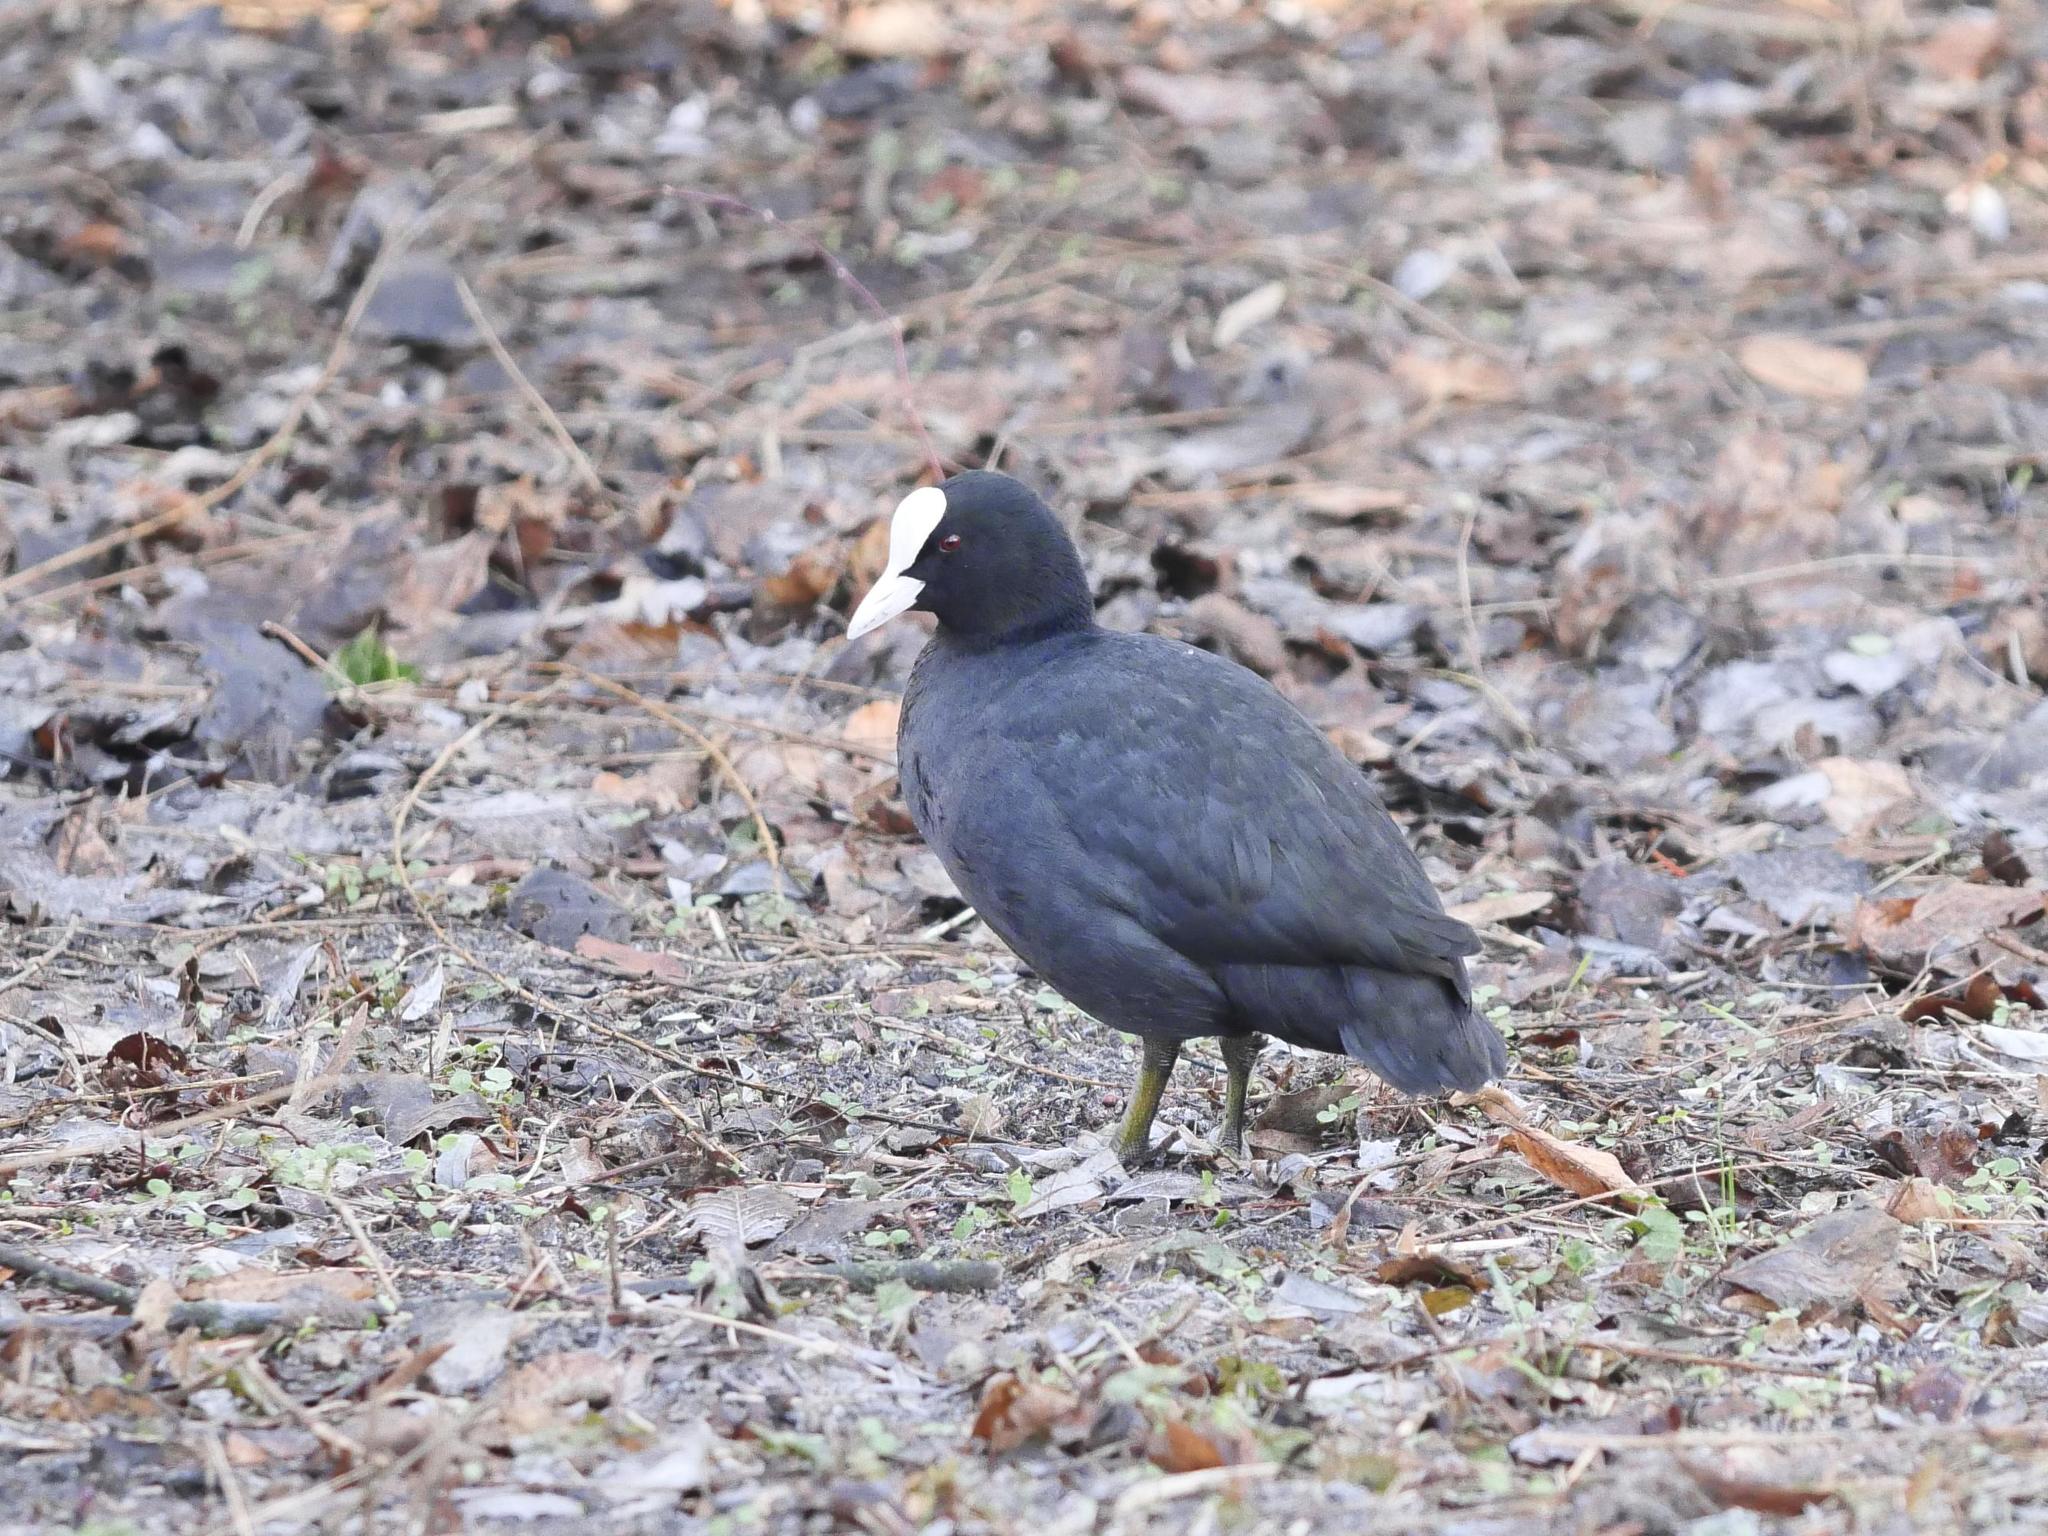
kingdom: Animalia
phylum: Chordata
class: Aves
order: Gruiformes
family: Rallidae
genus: Fulica
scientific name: Fulica atra
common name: Eurasian coot
